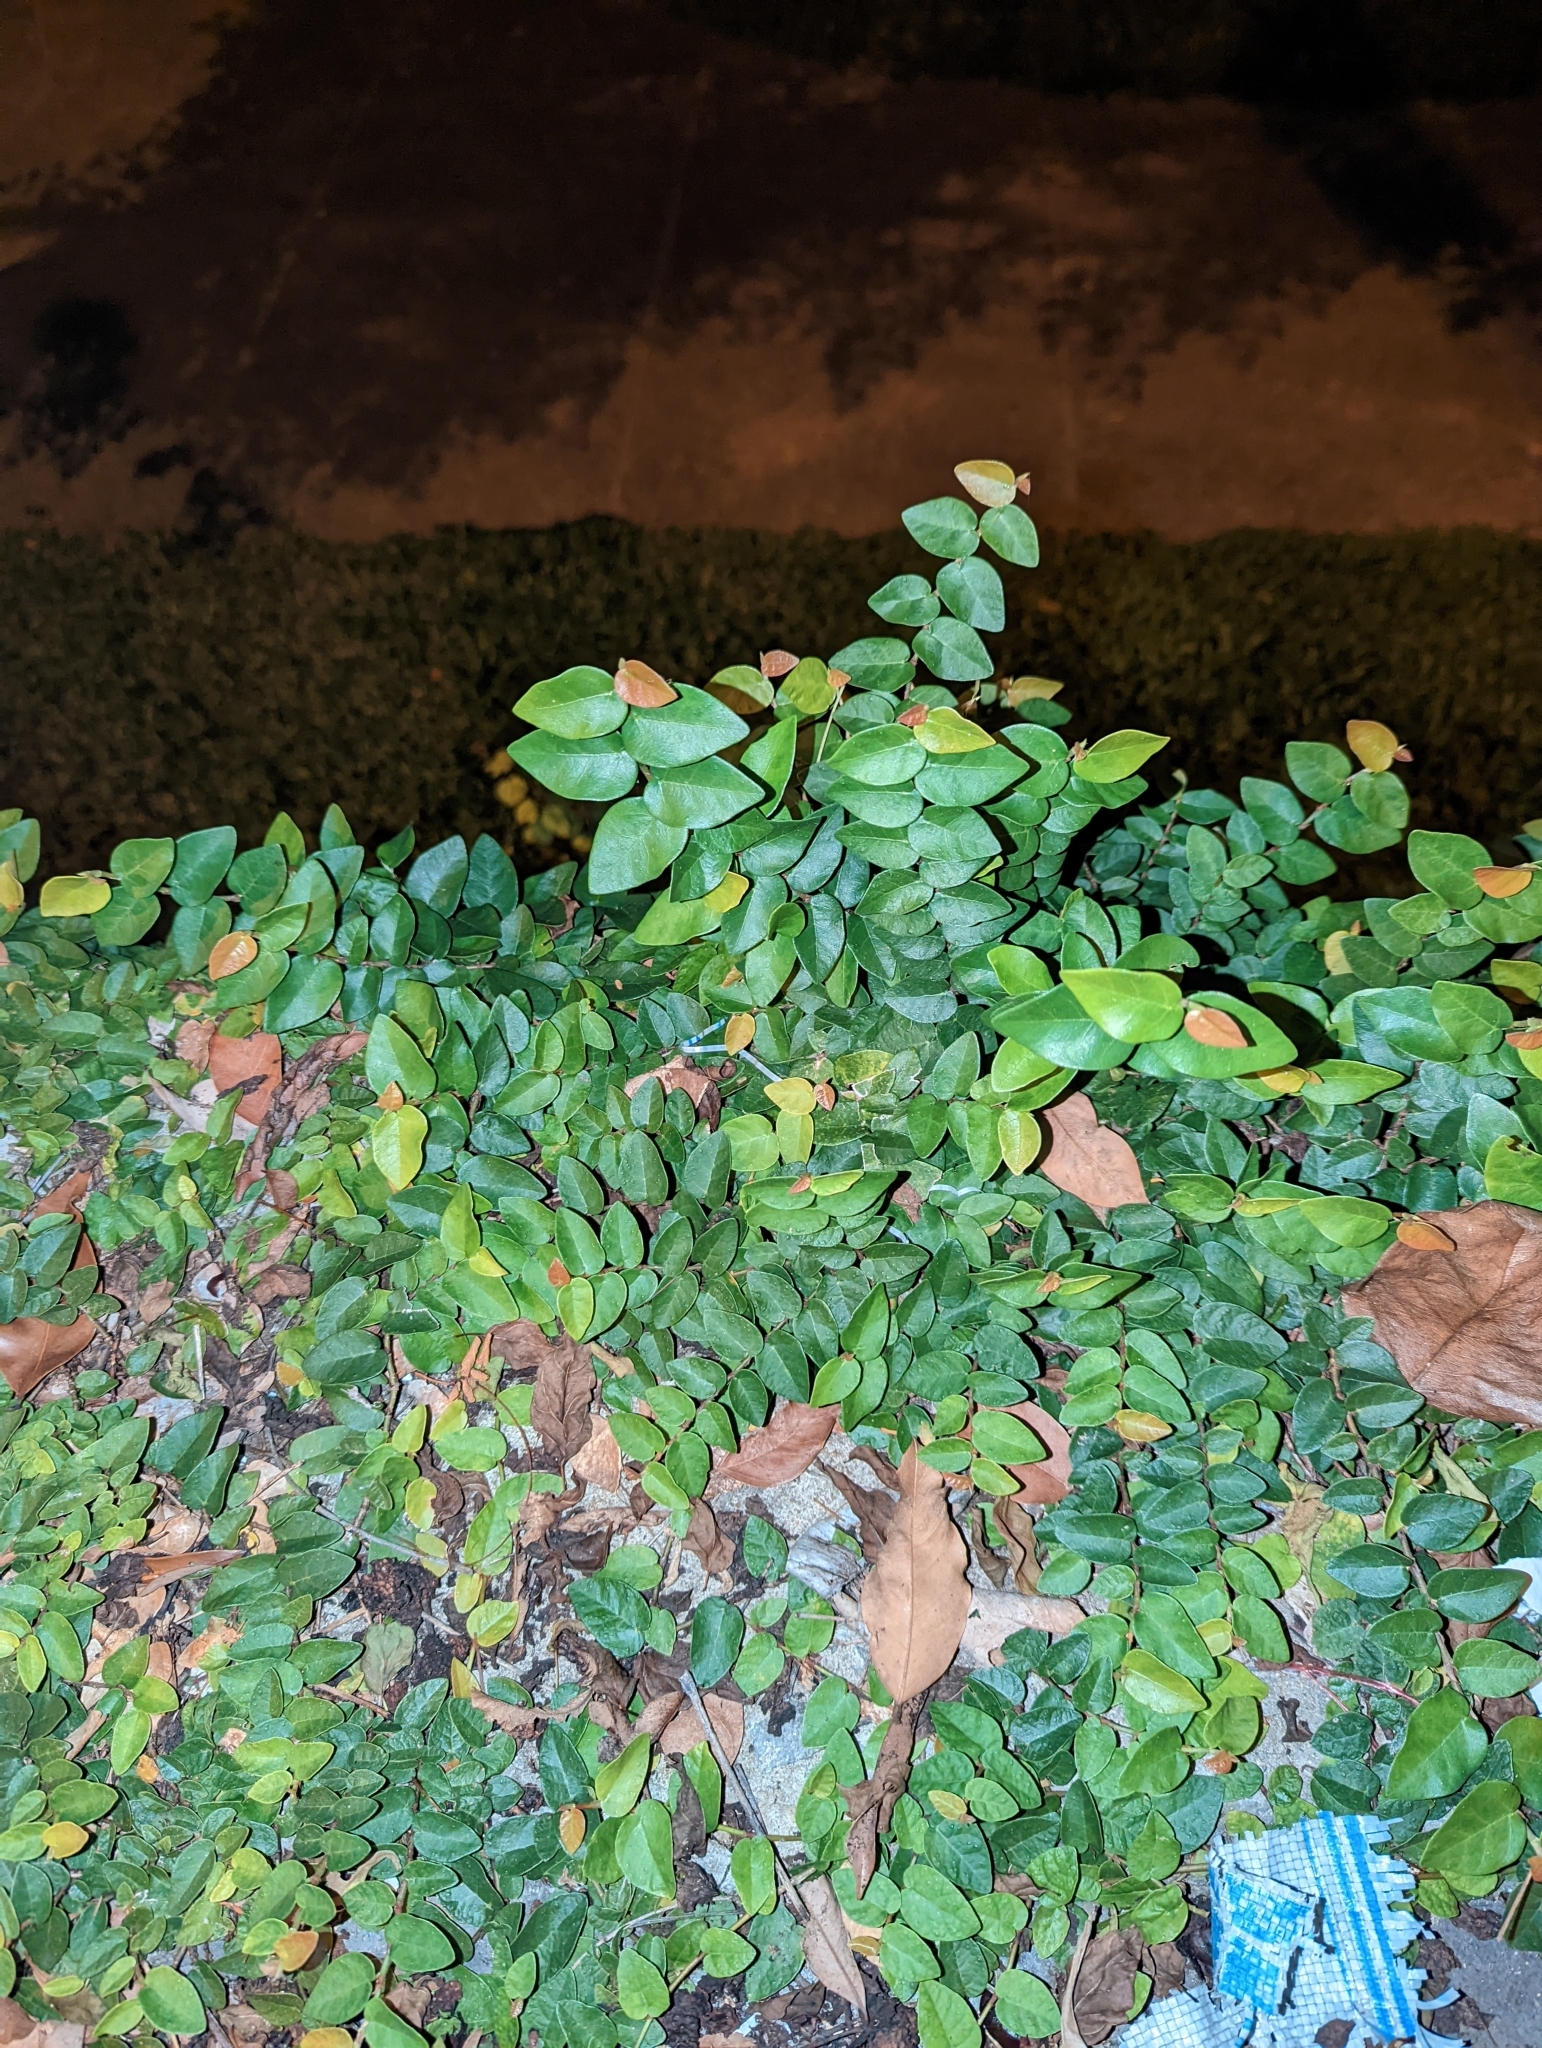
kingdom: Plantae
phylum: Tracheophyta
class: Magnoliopsida
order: Rosales
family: Moraceae
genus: Ficus
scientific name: Ficus pumila
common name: Climbingfig
